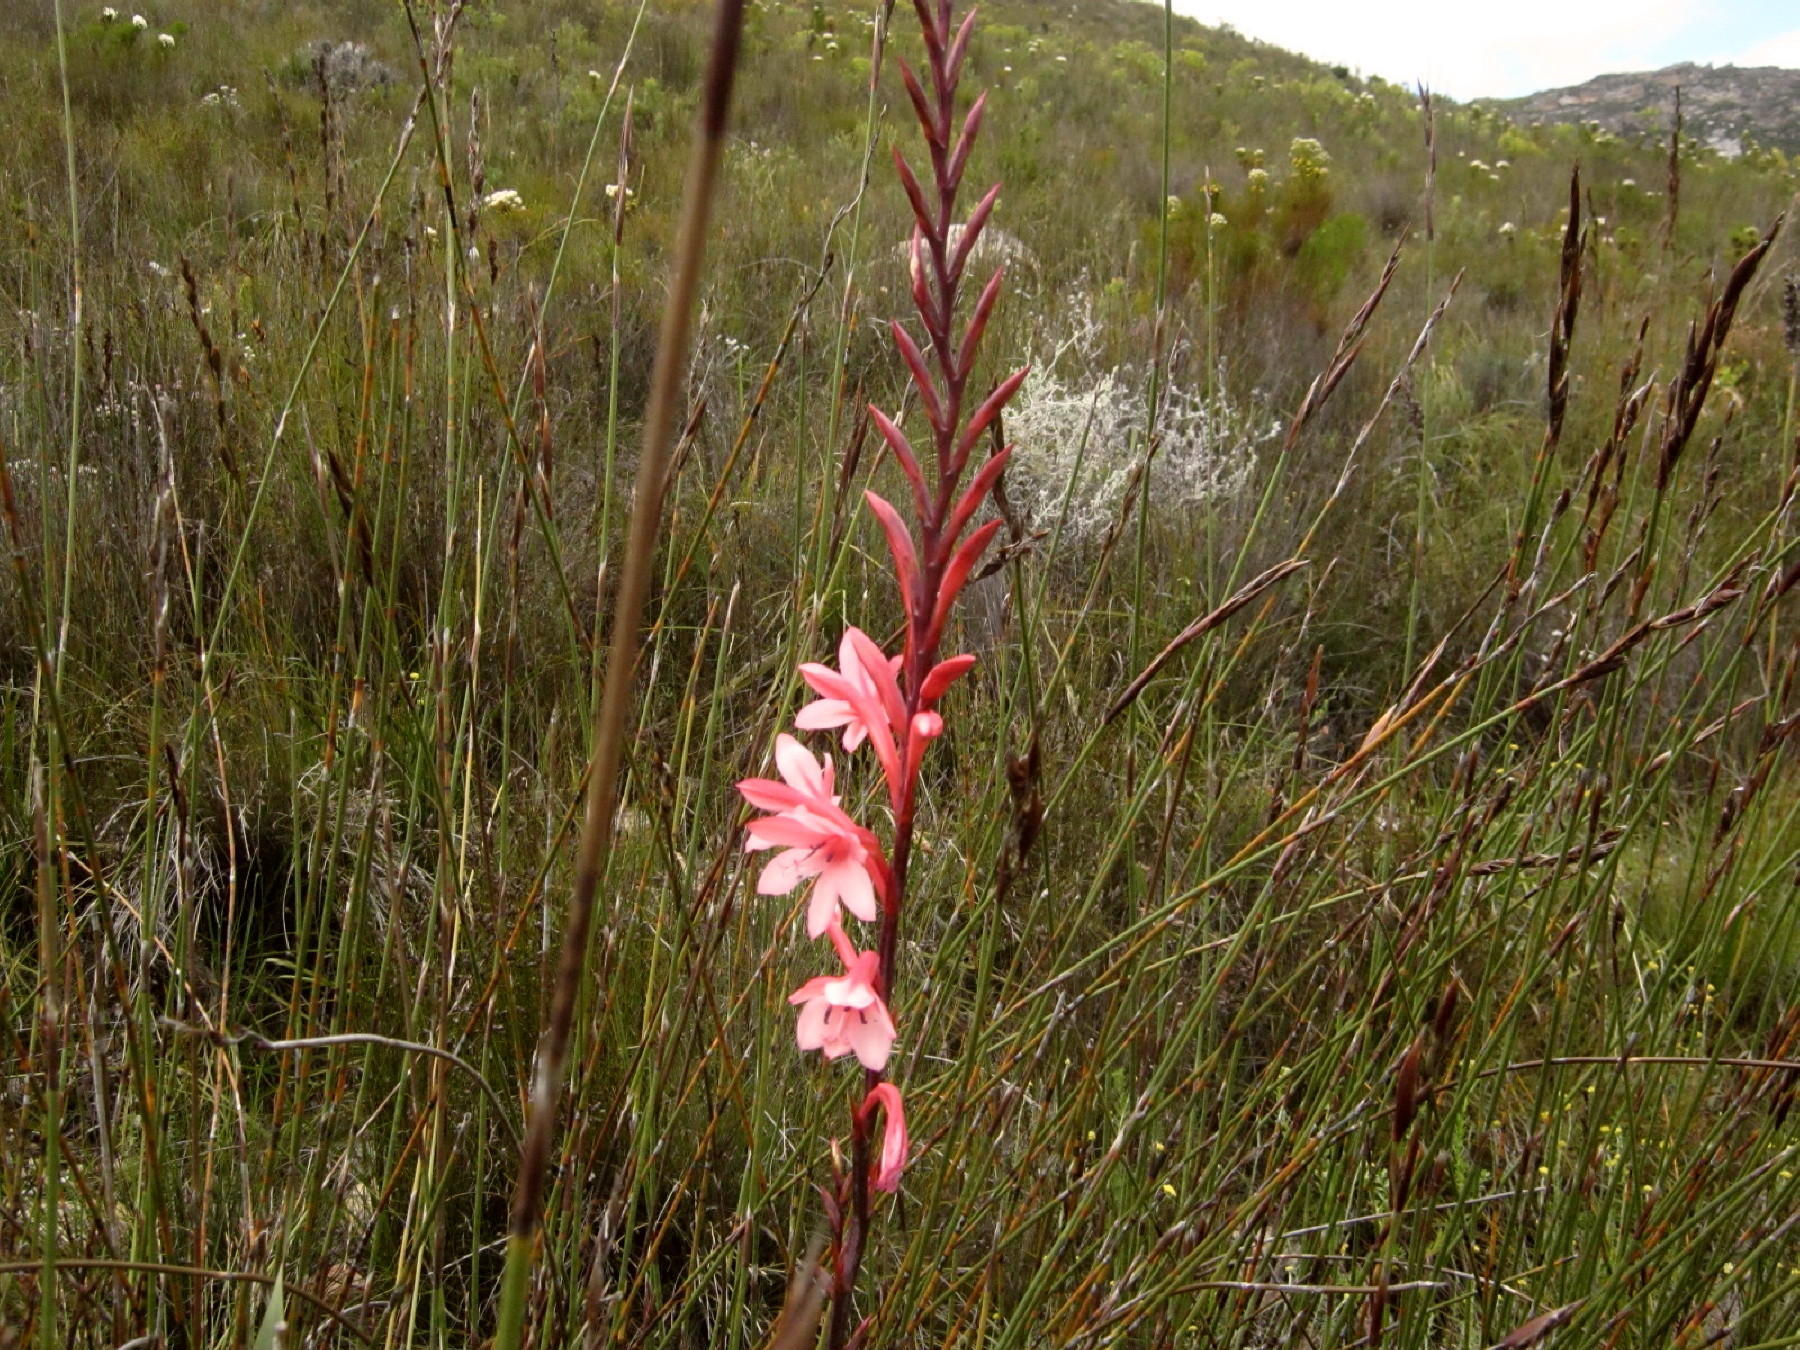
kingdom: Plantae
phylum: Tracheophyta
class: Liliopsida
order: Asparagales
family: Iridaceae
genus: Watsonia
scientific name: Watsonia fourcadei
